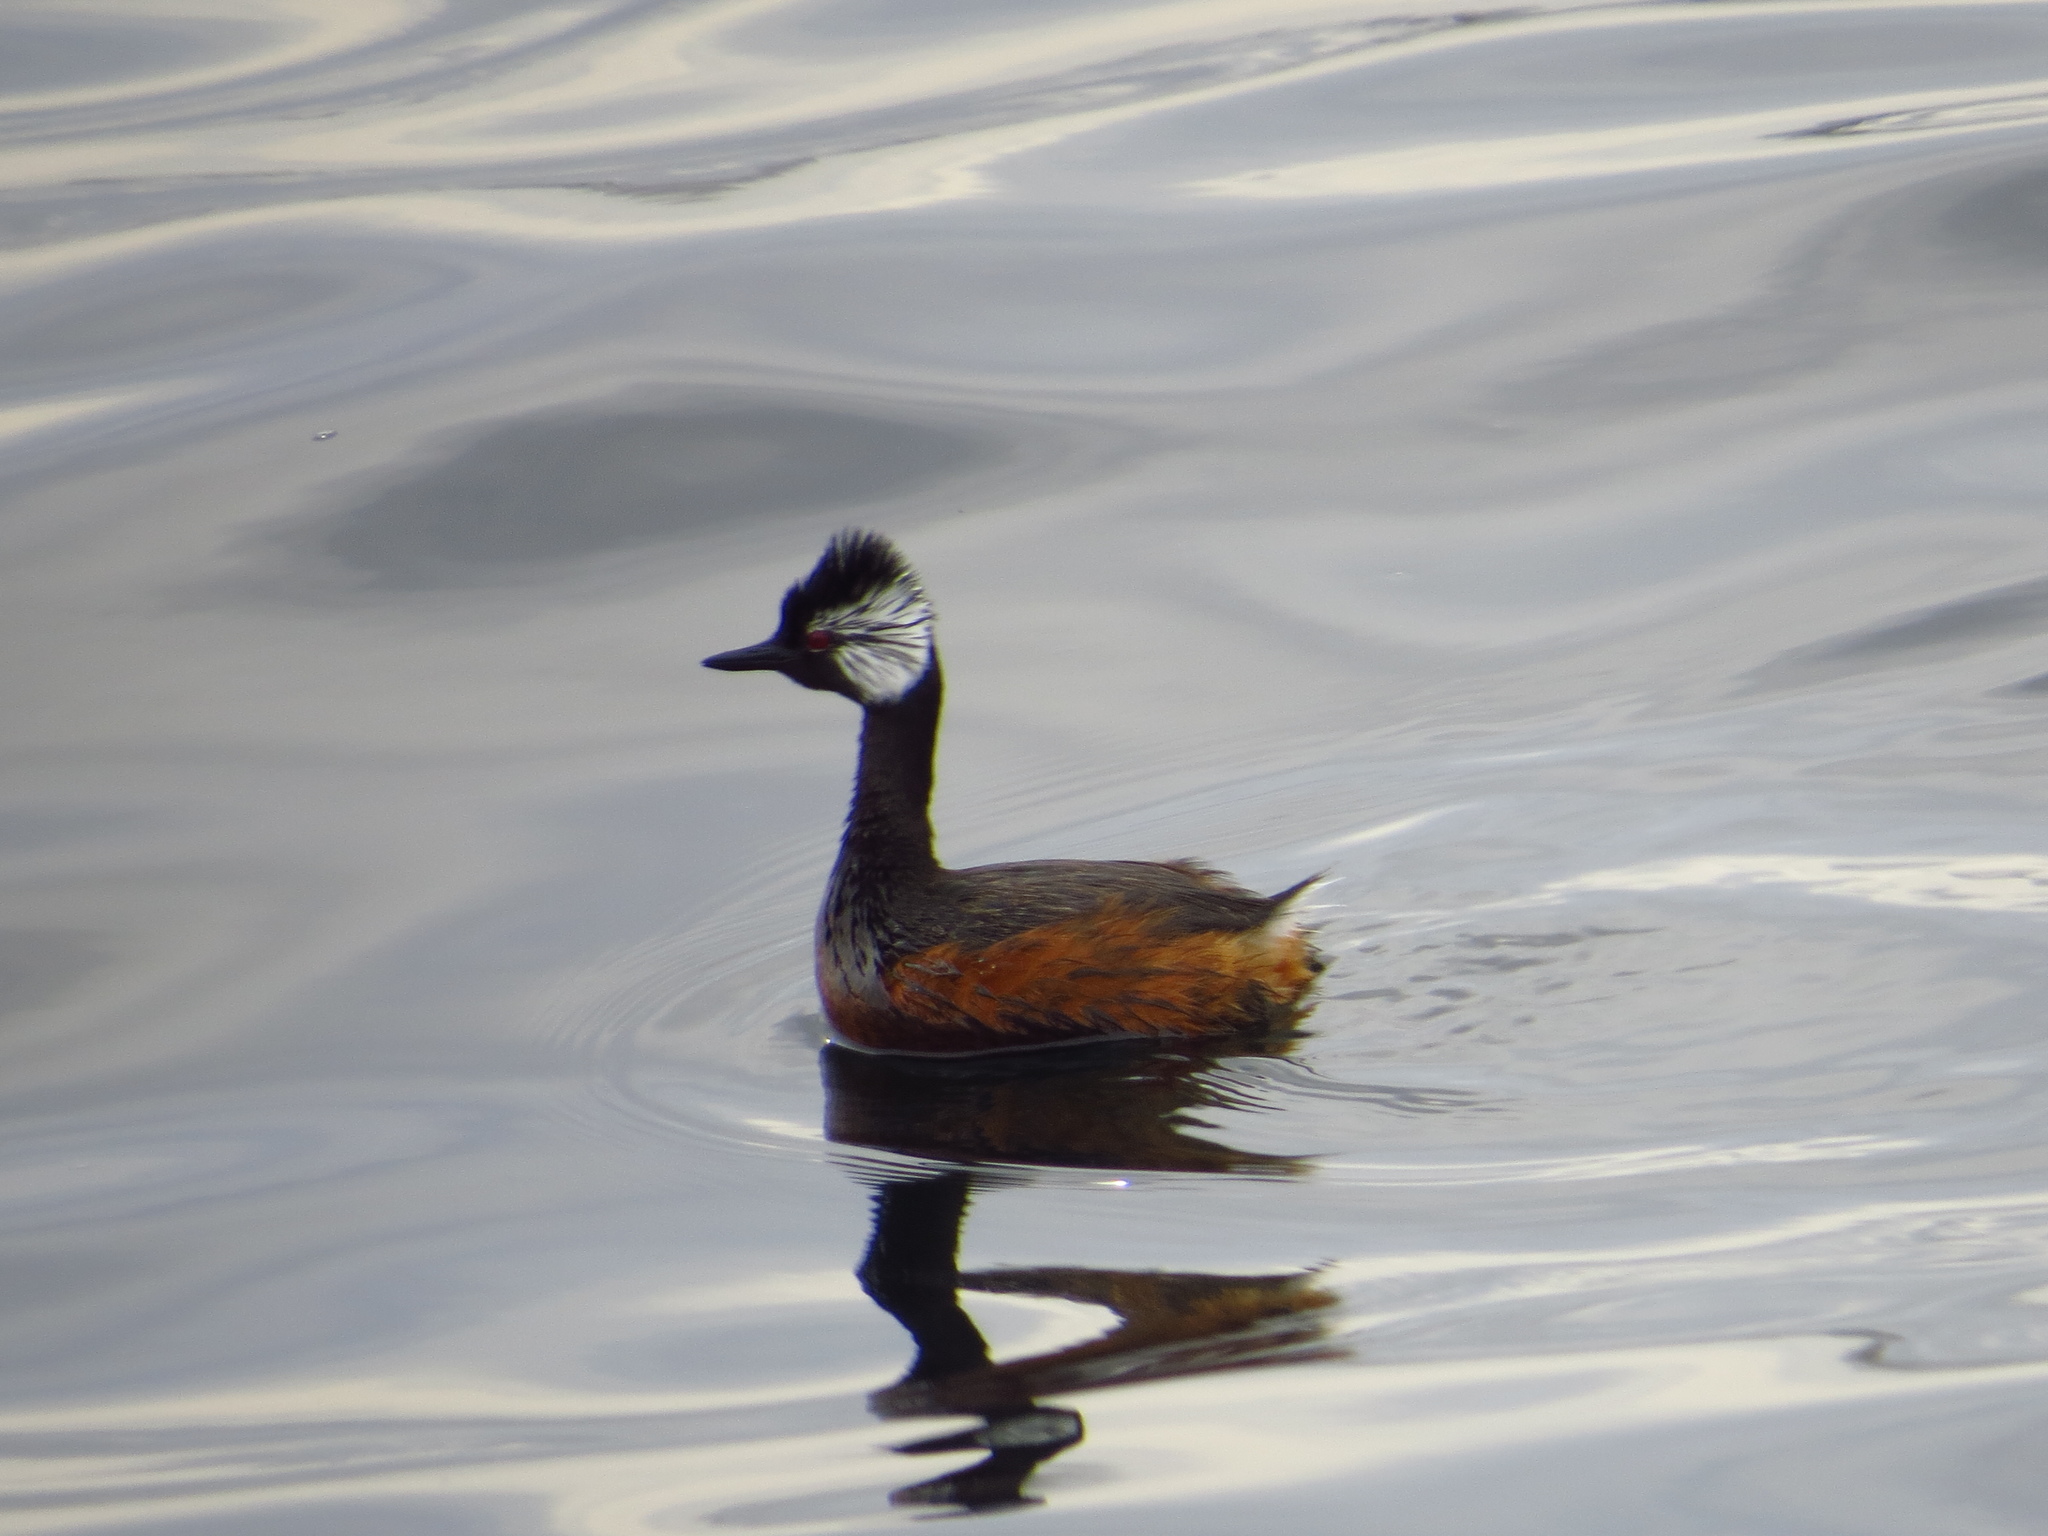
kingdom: Animalia
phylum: Chordata
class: Aves
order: Podicipediformes
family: Podicipedidae
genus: Rollandia
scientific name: Rollandia rolland
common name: White-tufted grebe
